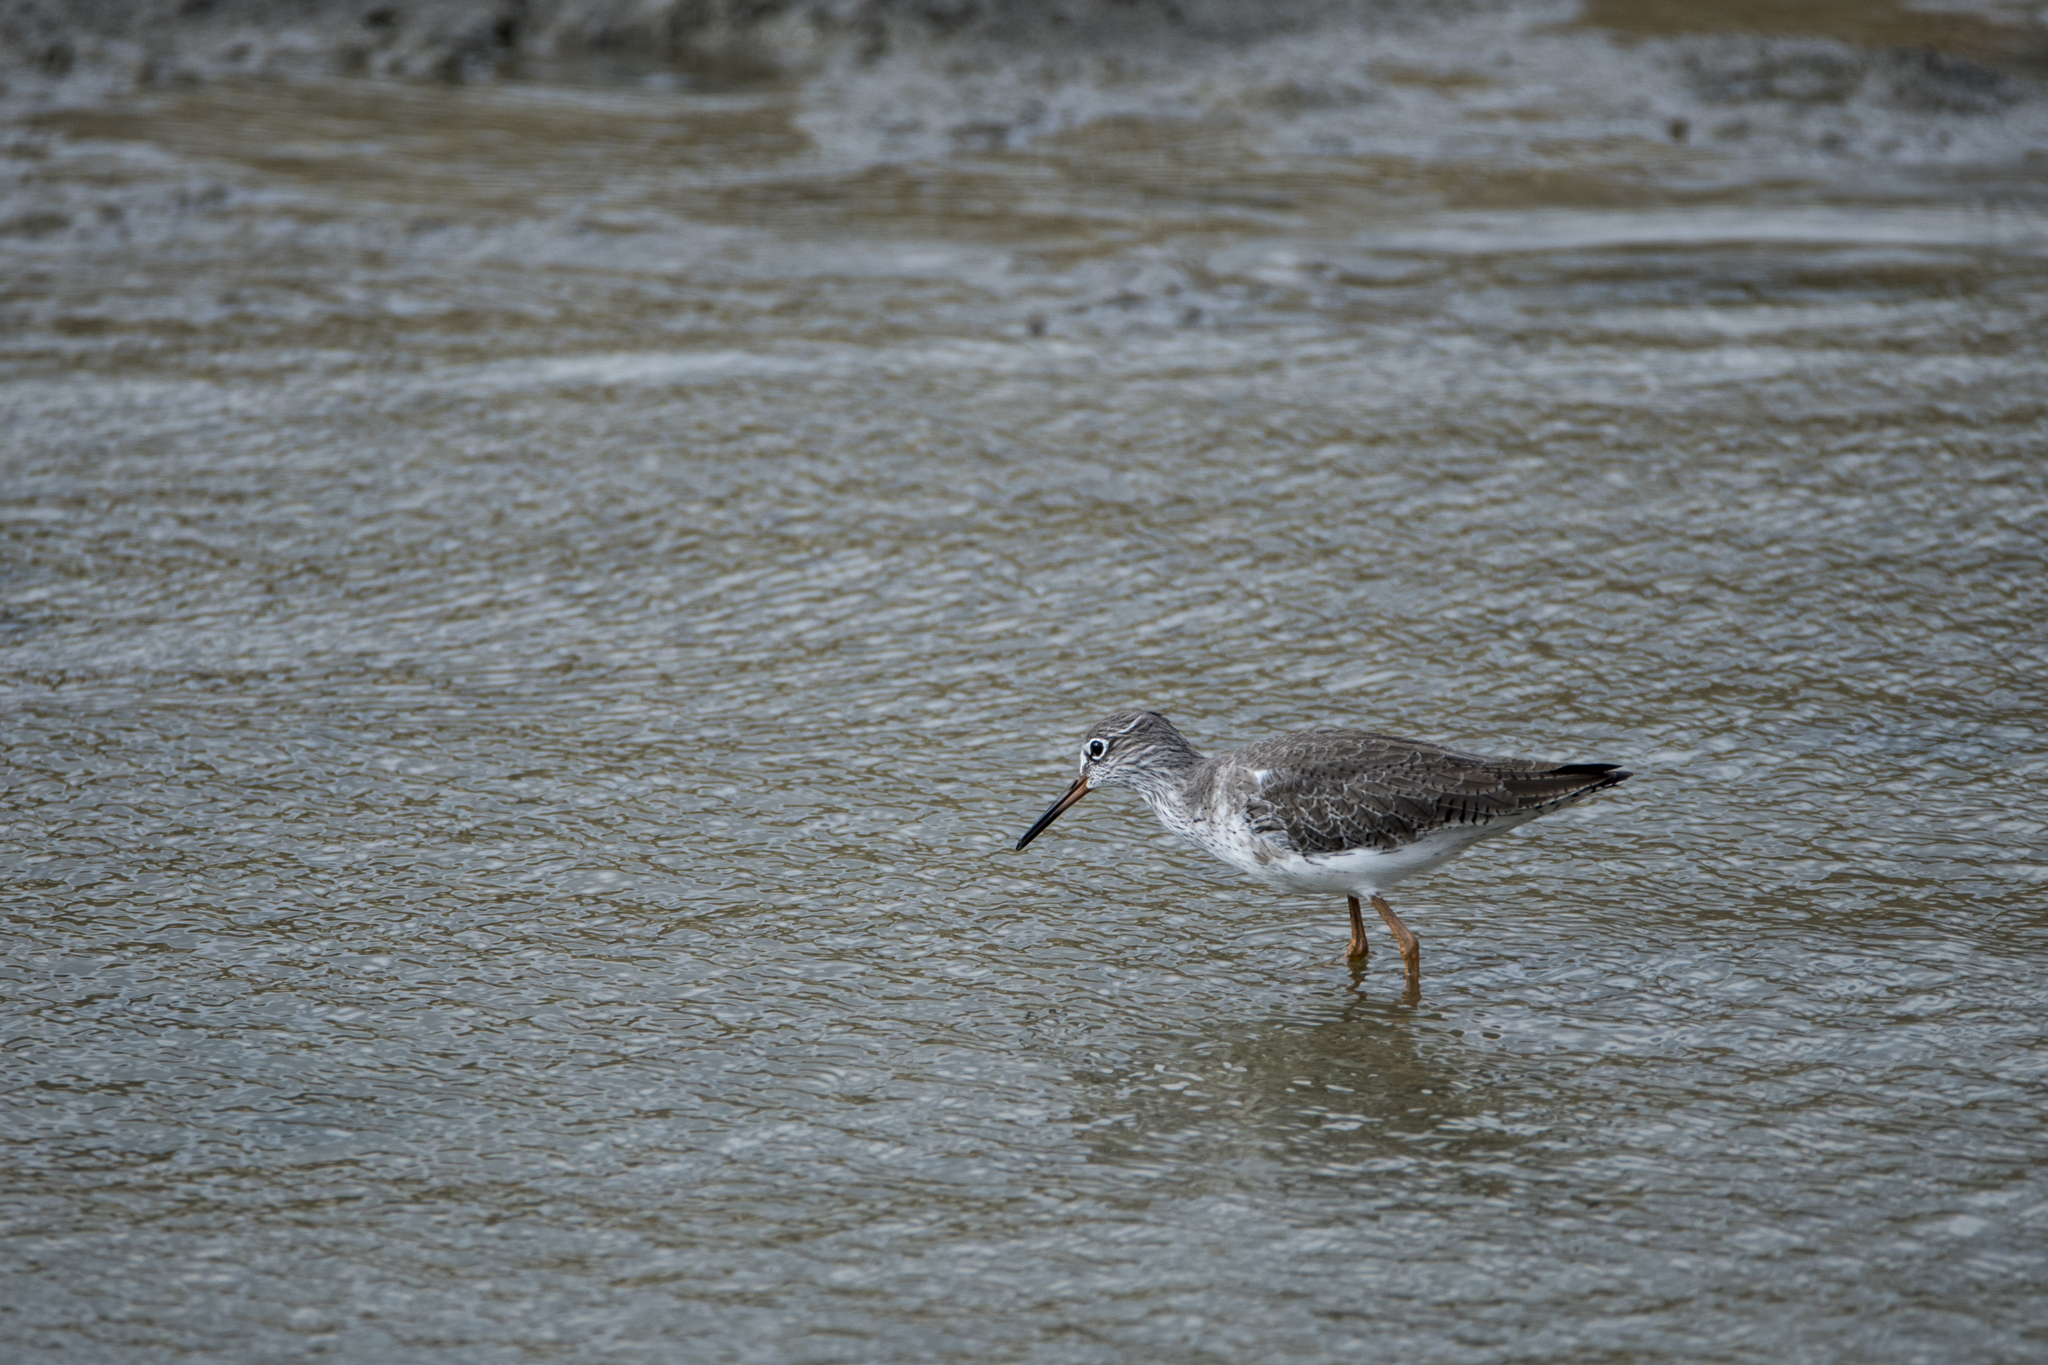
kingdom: Animalia
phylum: Chordata
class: Aves
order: Charadriiformes
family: Scolopacidae
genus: Tringa
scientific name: Tringa totanus
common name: Common redshank
